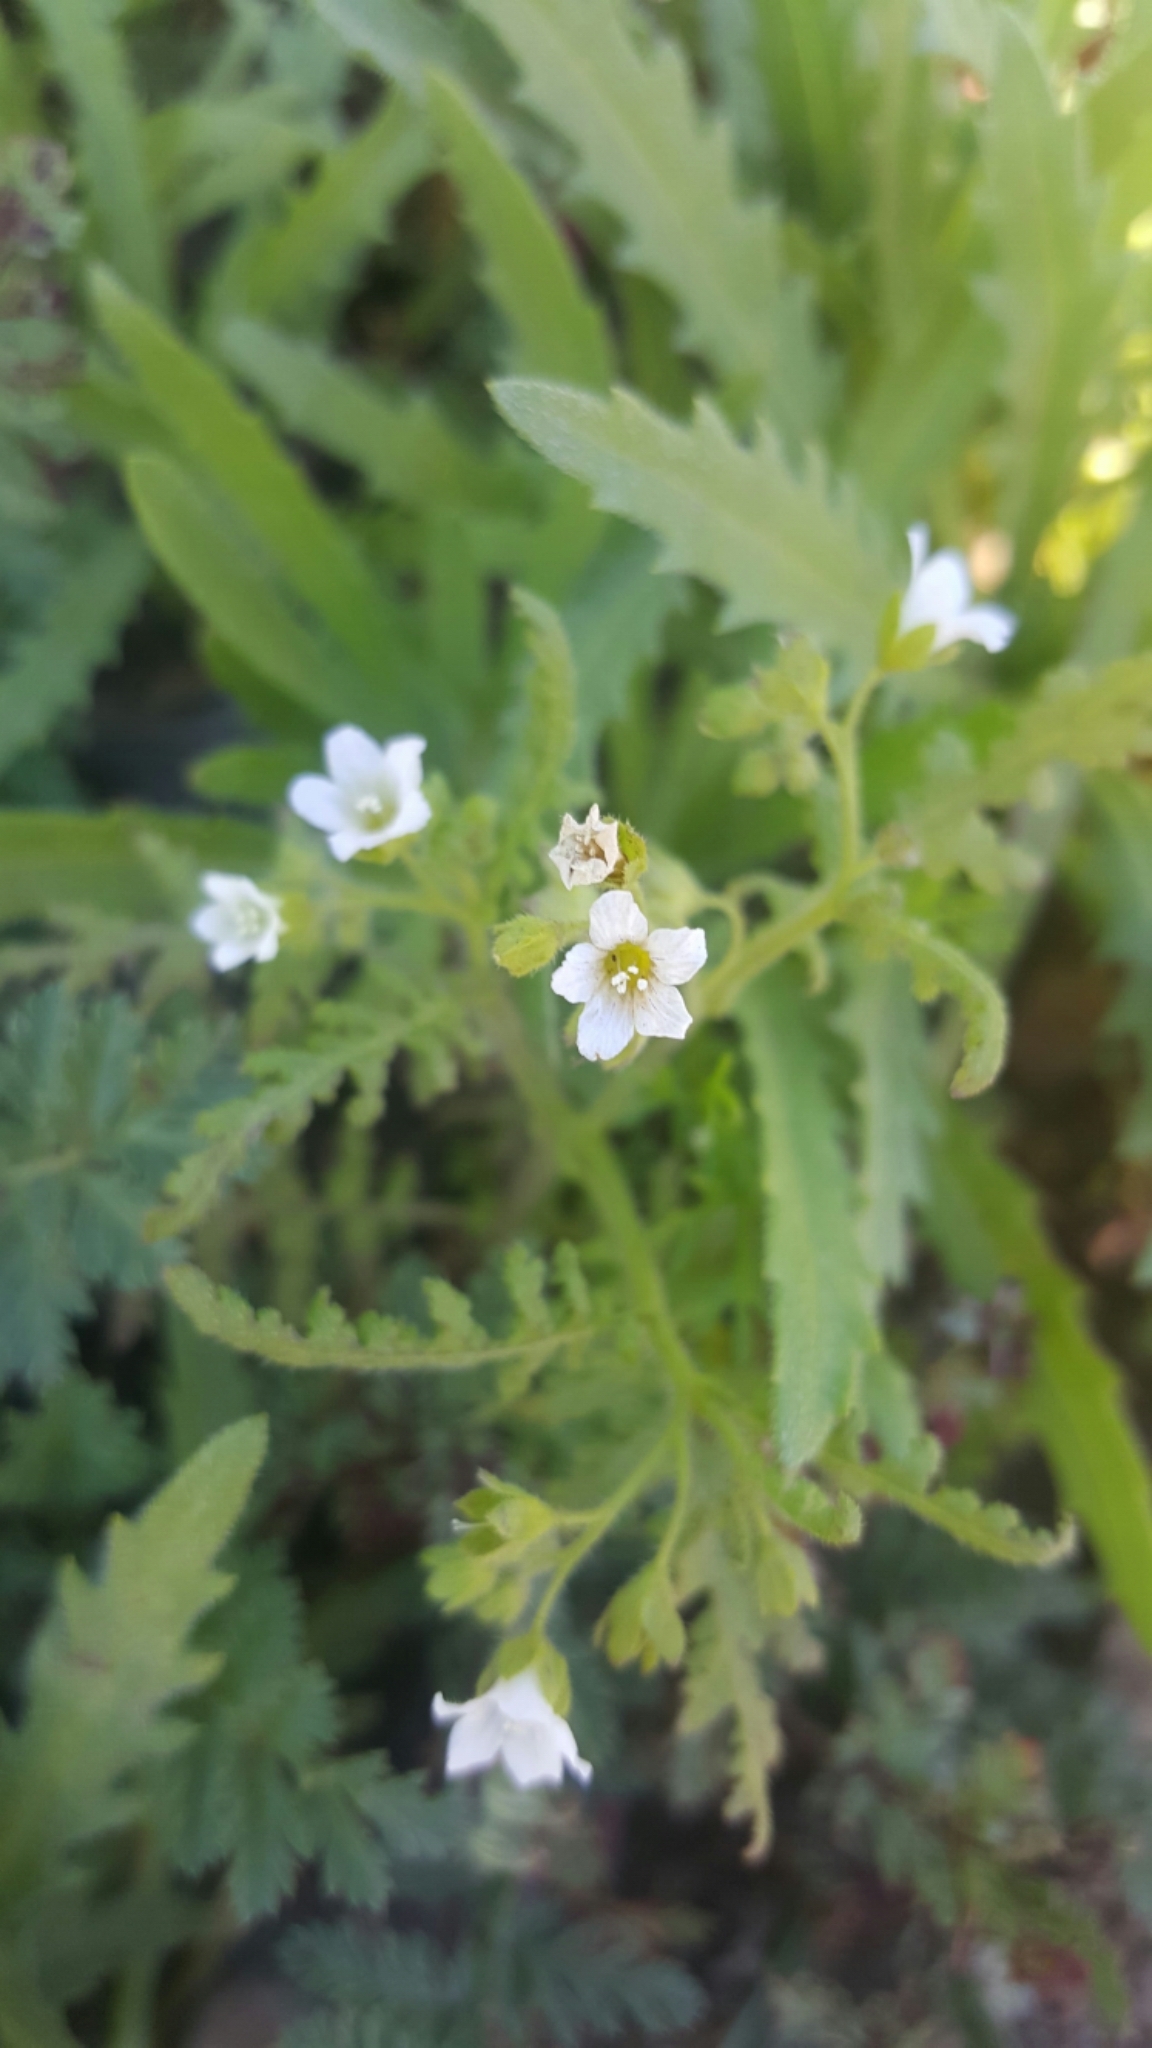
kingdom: Plantae
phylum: Tracheophyta
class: Magnoliopsida
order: Boraginales
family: Hydrophyllaceae
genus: Eucrypta
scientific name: Eucrypta chrysanthemifolia
